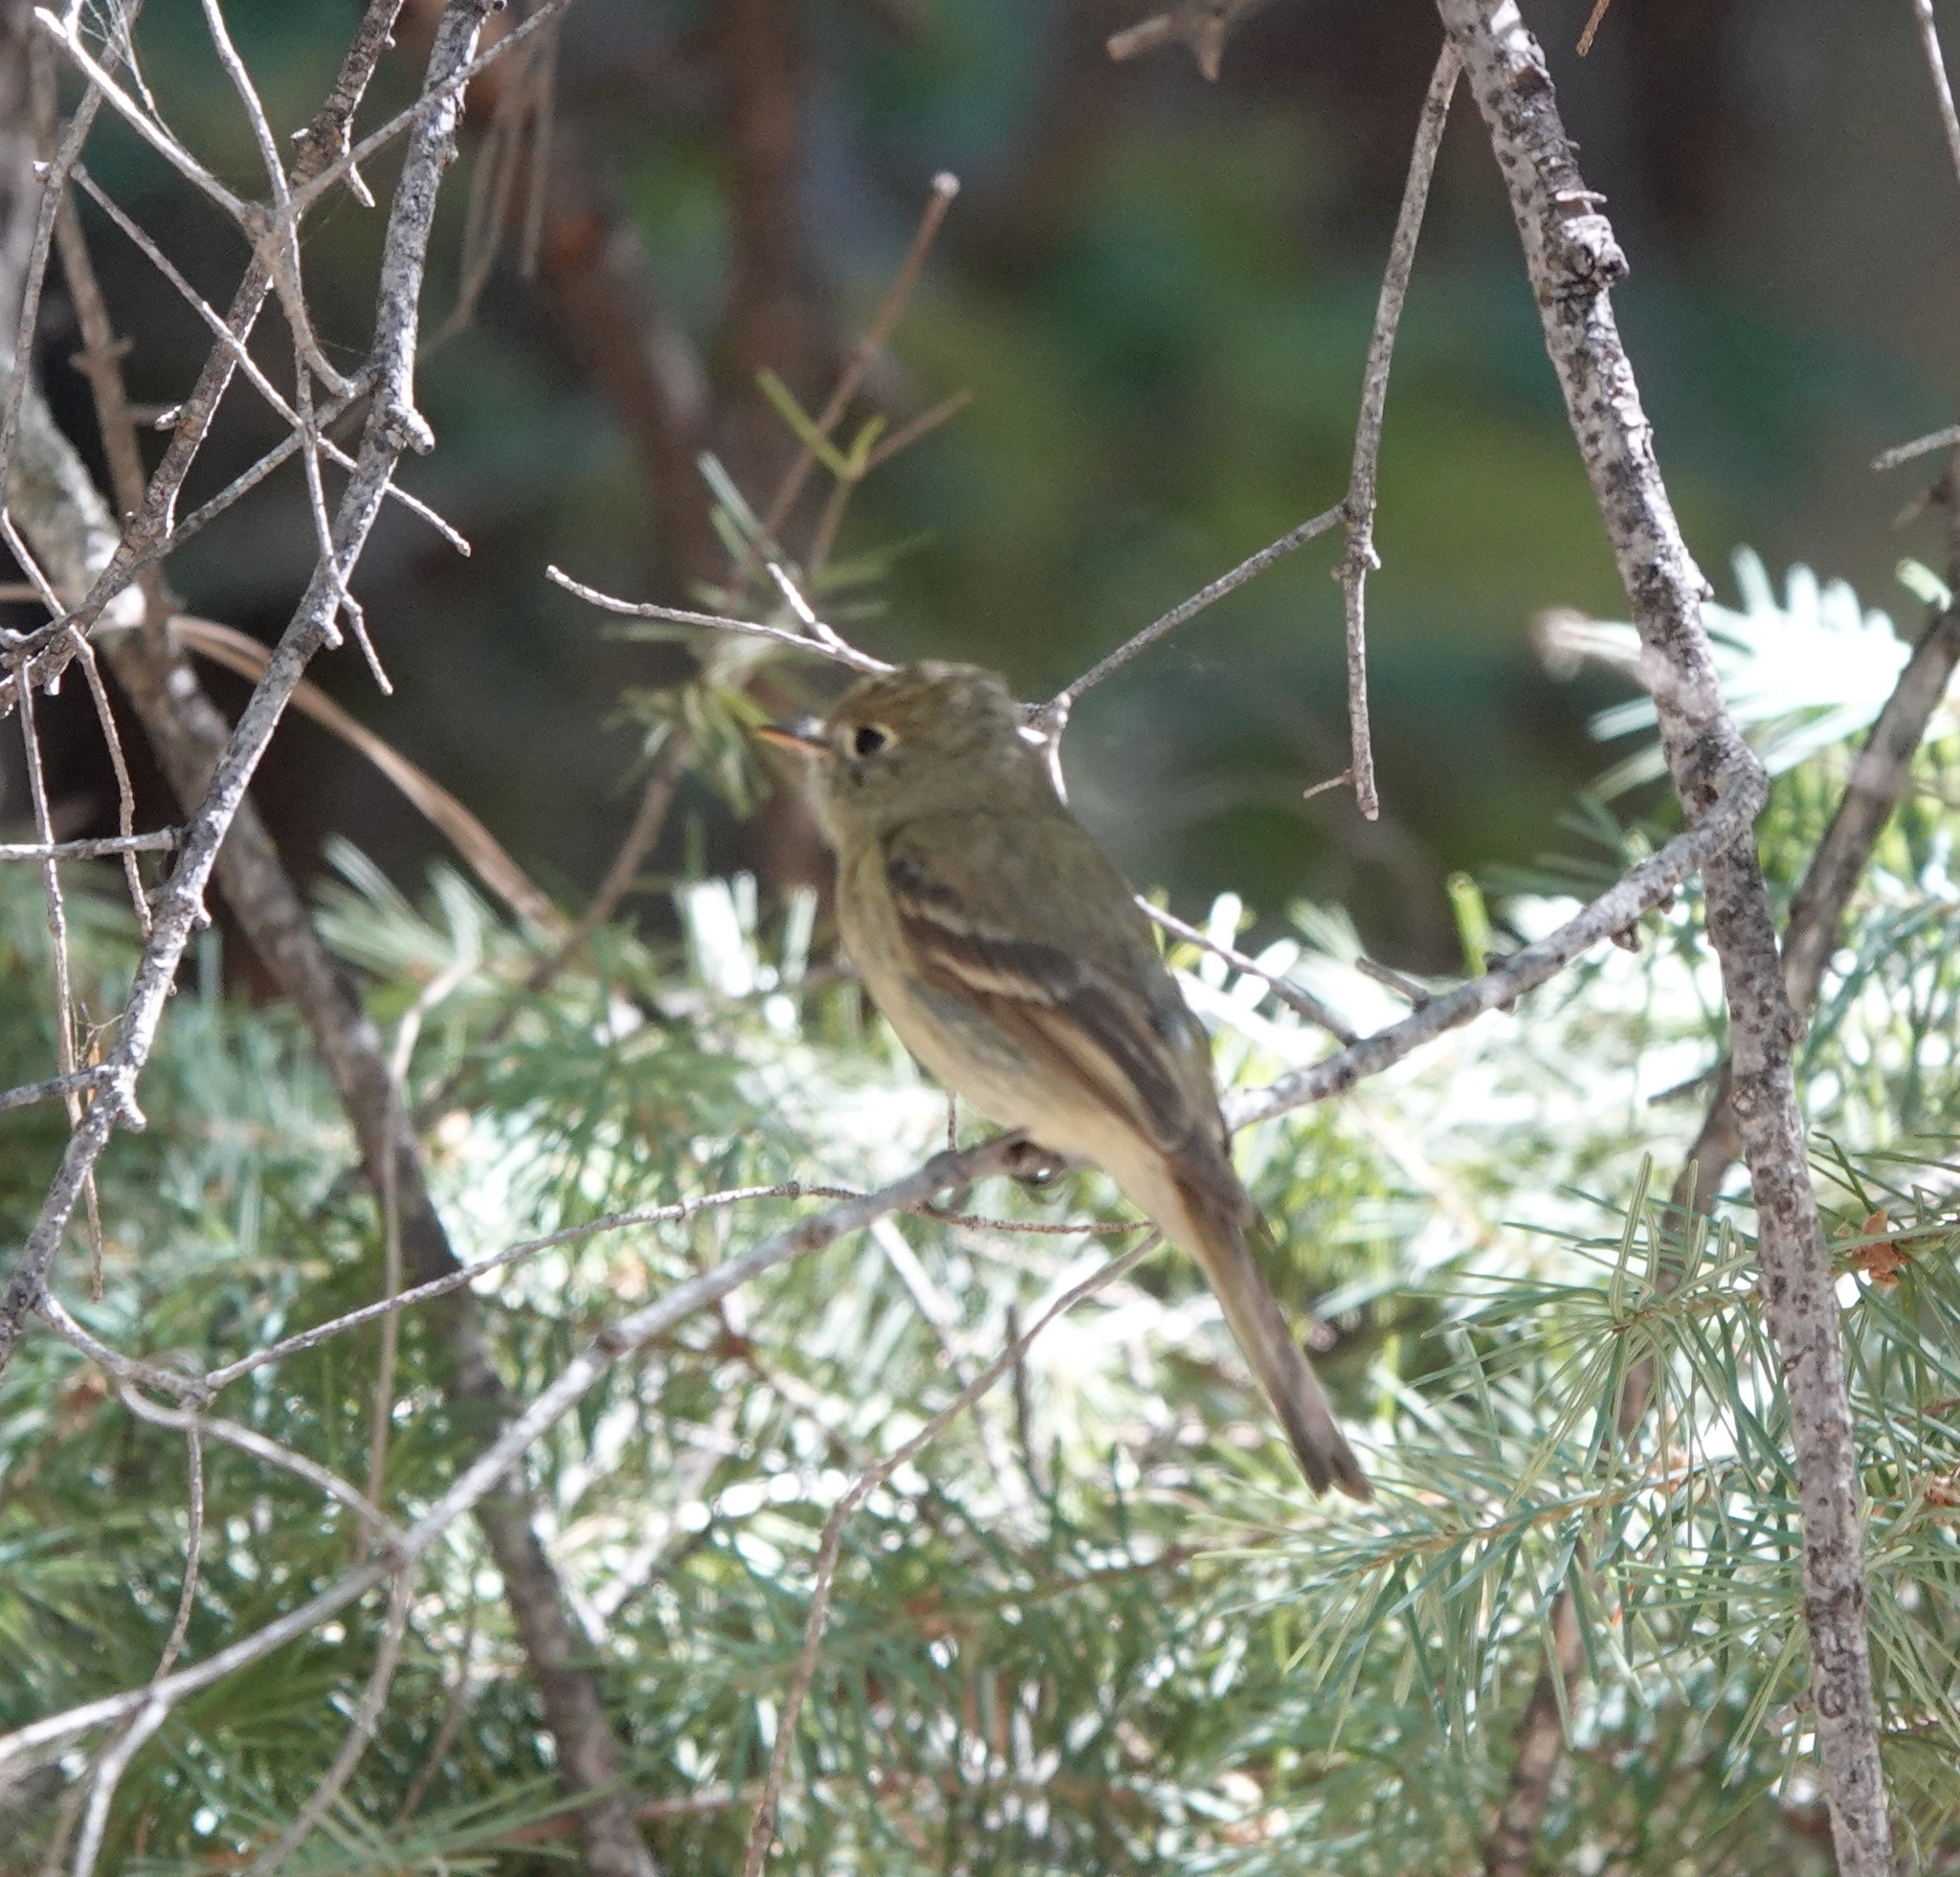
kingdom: Animalia
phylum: Chordata
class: Aves
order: Passeriformes
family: Tyrannidae
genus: Empidonax
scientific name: Empidonax difficilis
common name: Pacific-slope flycatcher
